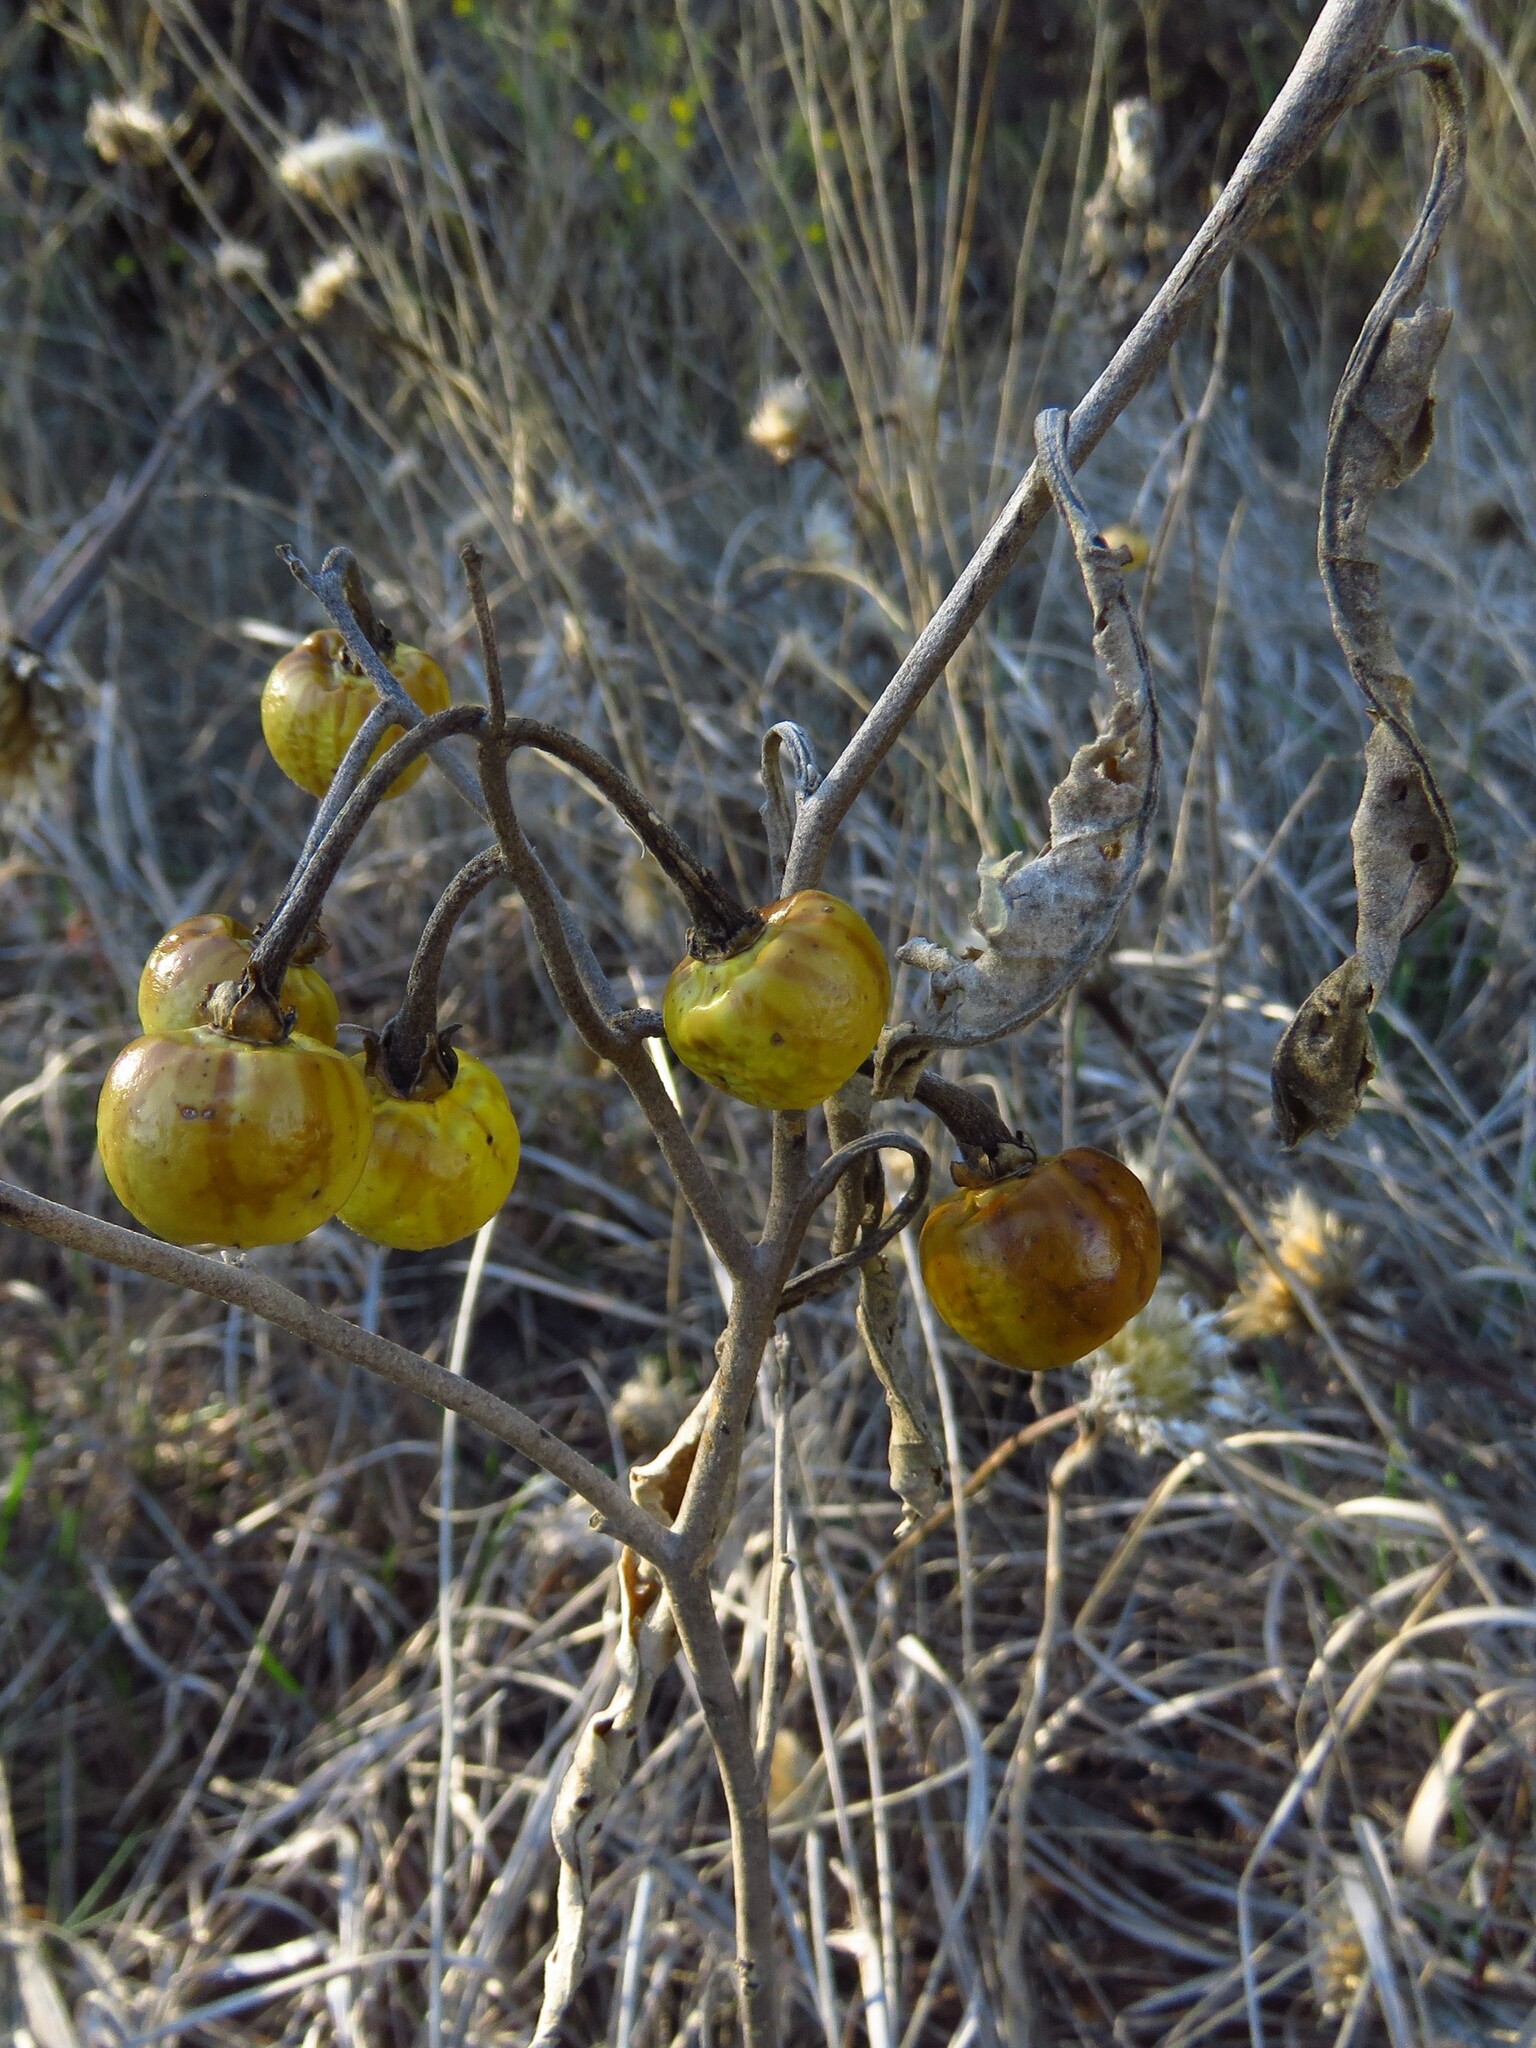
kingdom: Plantae
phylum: Tracheophyta
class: Magnoliopsida
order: Solanales
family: Solanaceae
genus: Solanum
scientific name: Solanum elaeagnifolium
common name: Silverleaf nightshade
